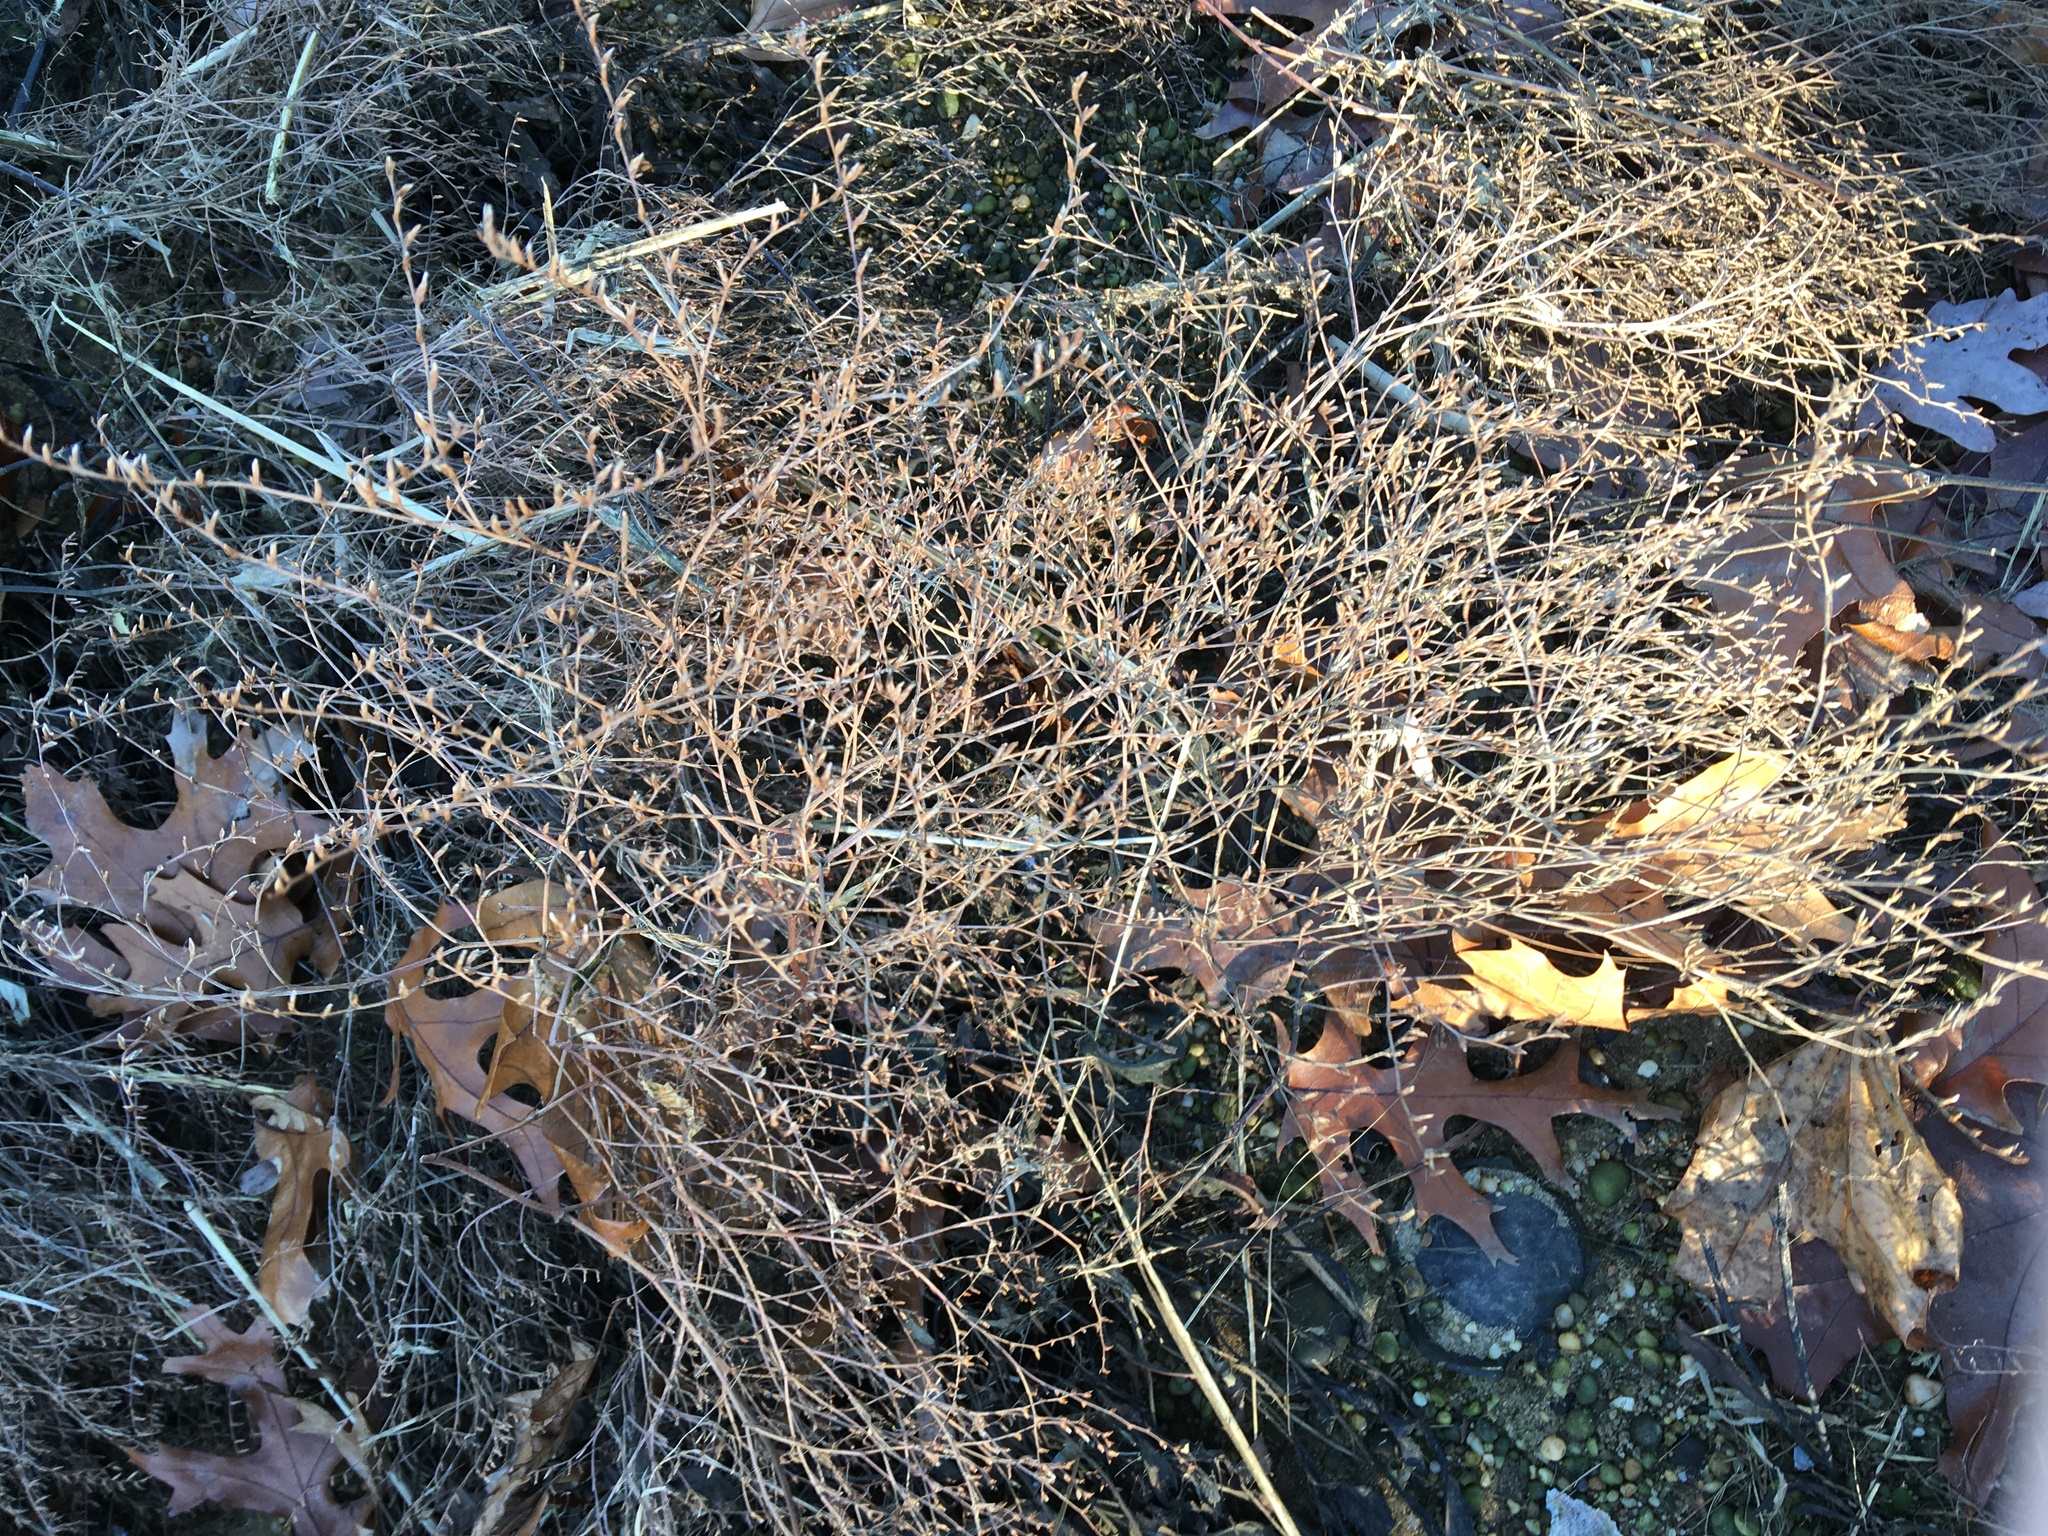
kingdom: Plantae
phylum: Tracheophyta
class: Magnoliopsida
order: Caryophyllales
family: Plumbaginaceae
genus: Limonium
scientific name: Limonium carolinianum
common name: Carolina sea lavender
